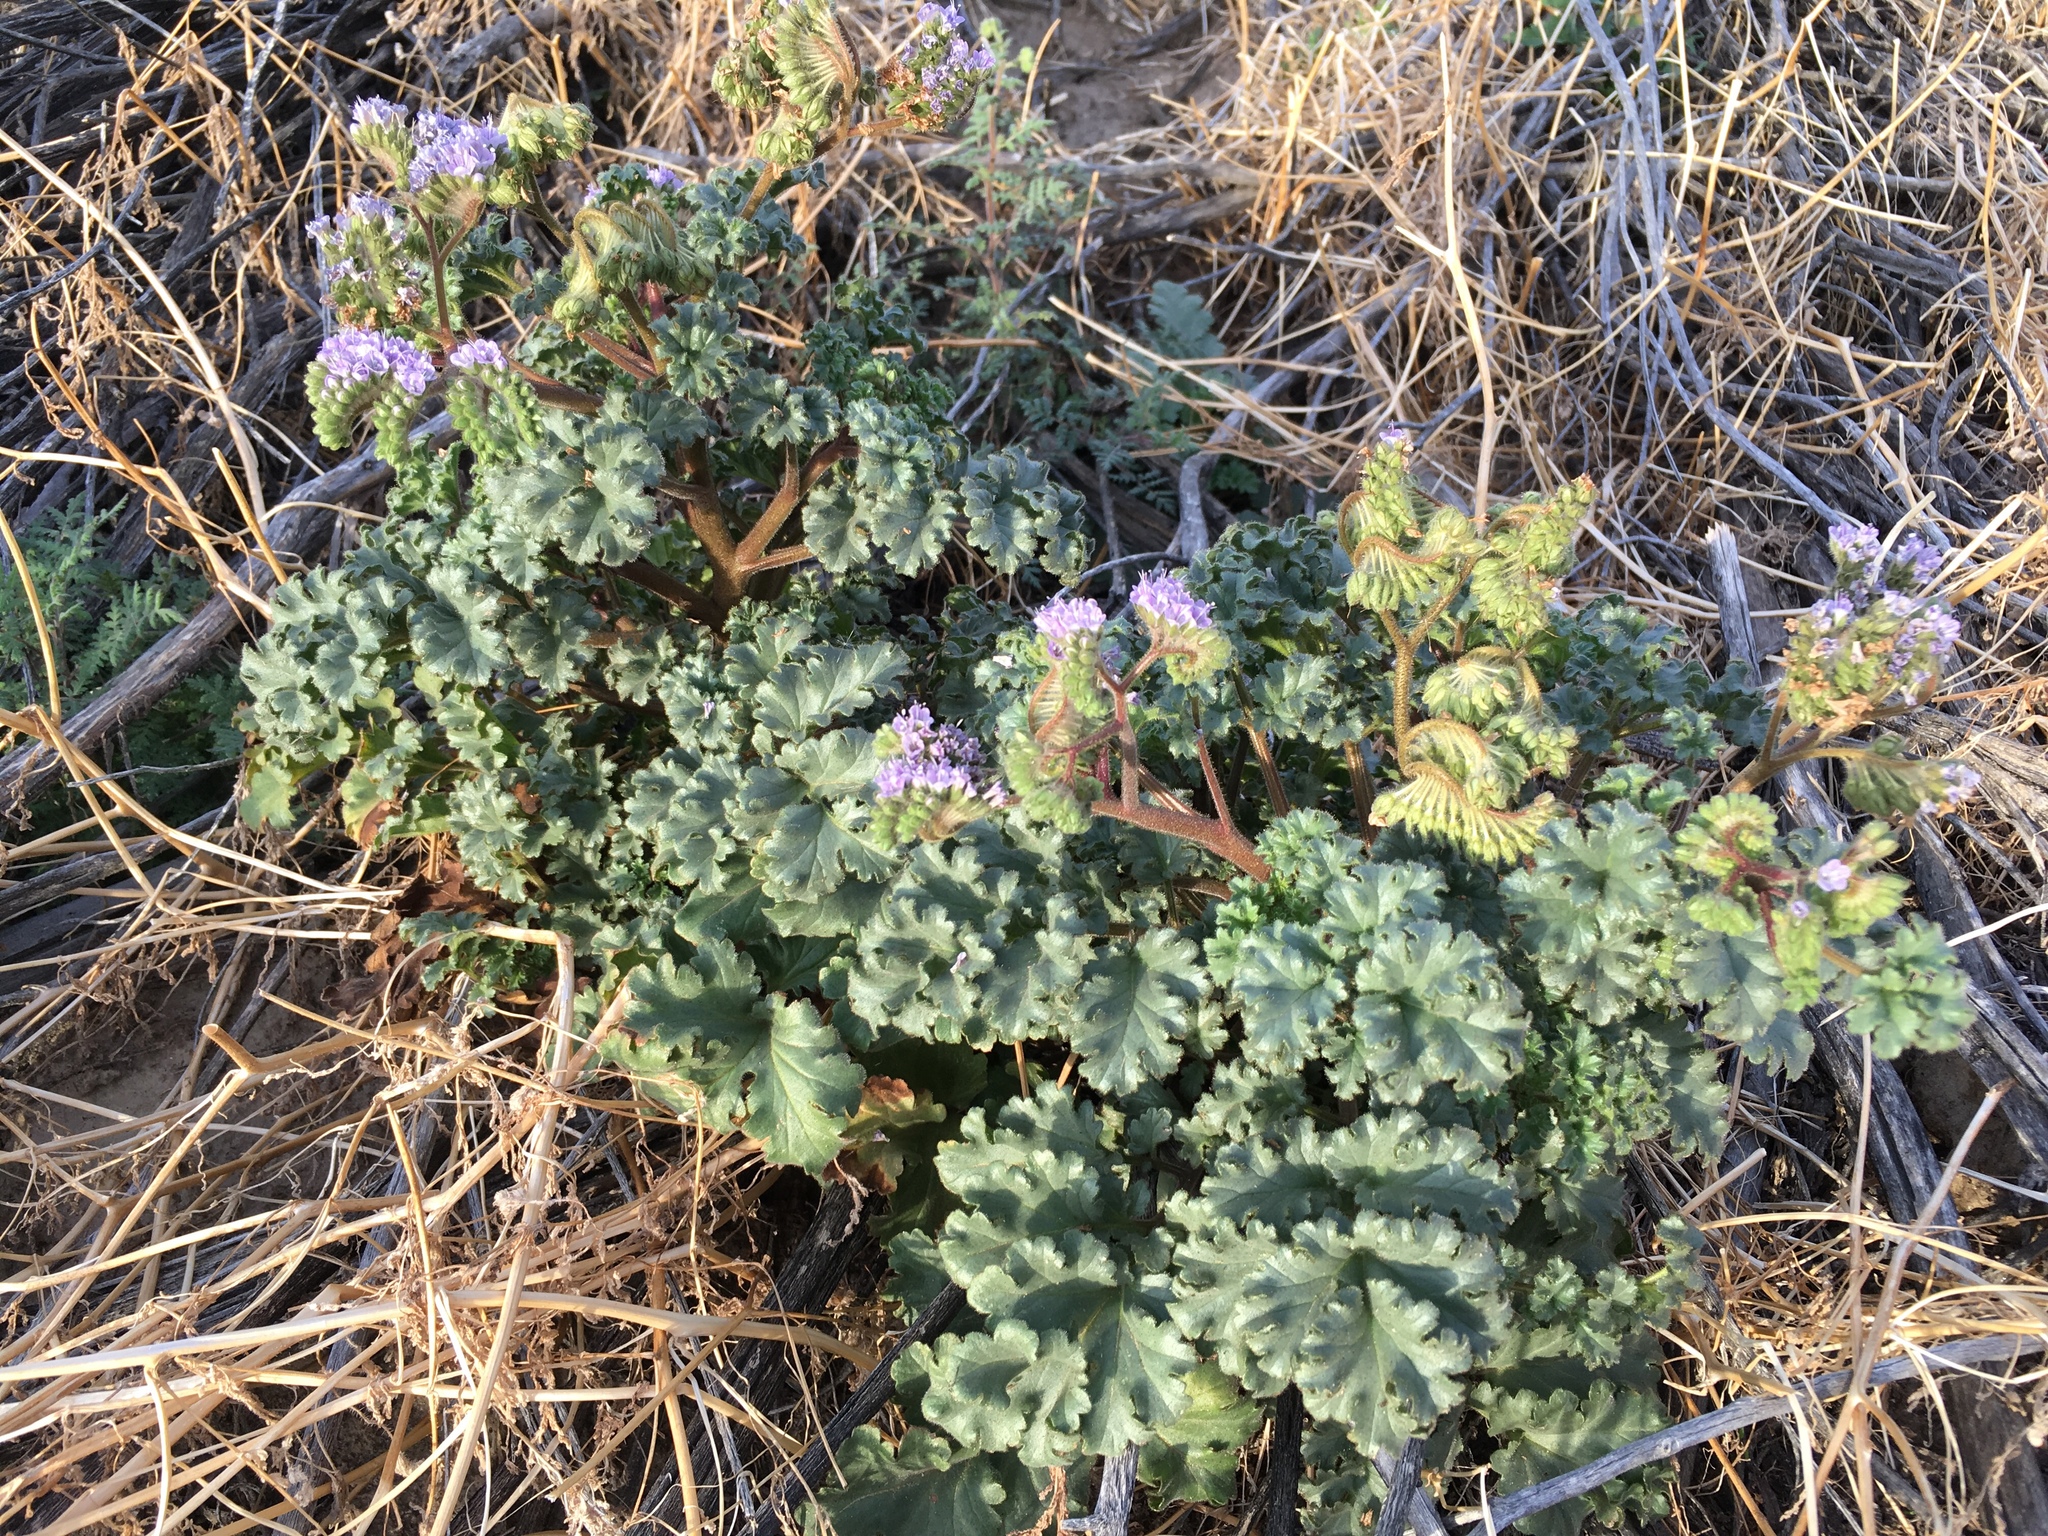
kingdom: Plantae
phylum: Tracheophyta
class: Magnoliopsida
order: Boraginales
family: Hydrophyllaceae
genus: Phacelia
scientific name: Phacelia pedicellata
